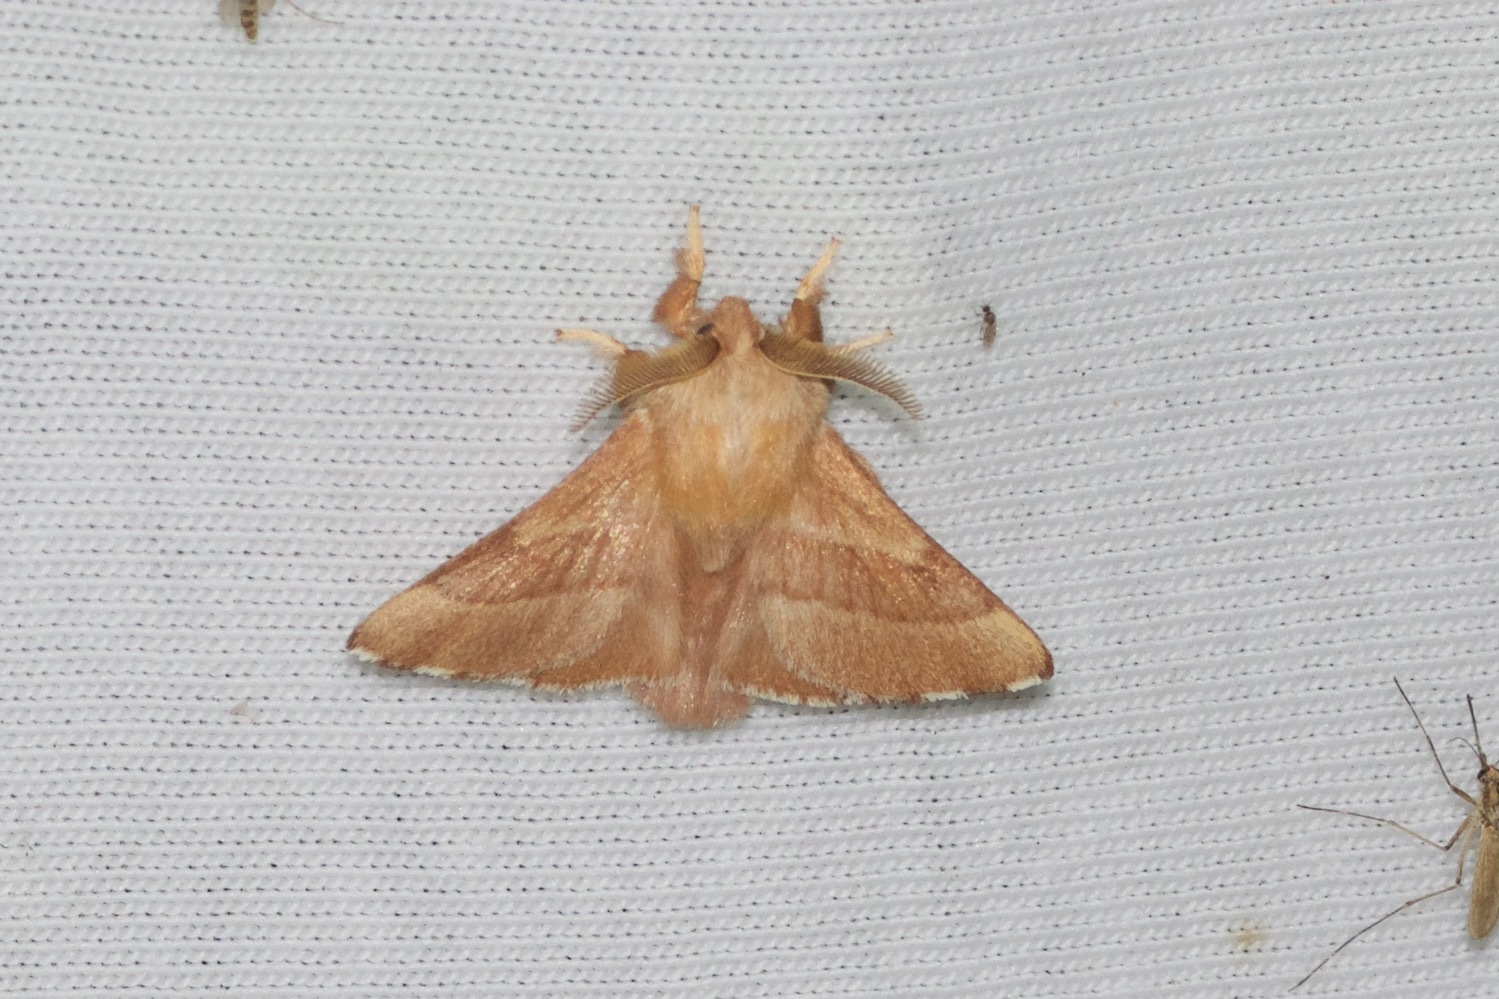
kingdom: Animalia
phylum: Arthropoda
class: Insecta
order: Lepidoptera
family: Lasiocampidae
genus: Malacosoma
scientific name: Malacosoma disstria
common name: Forest tent caterpillar
